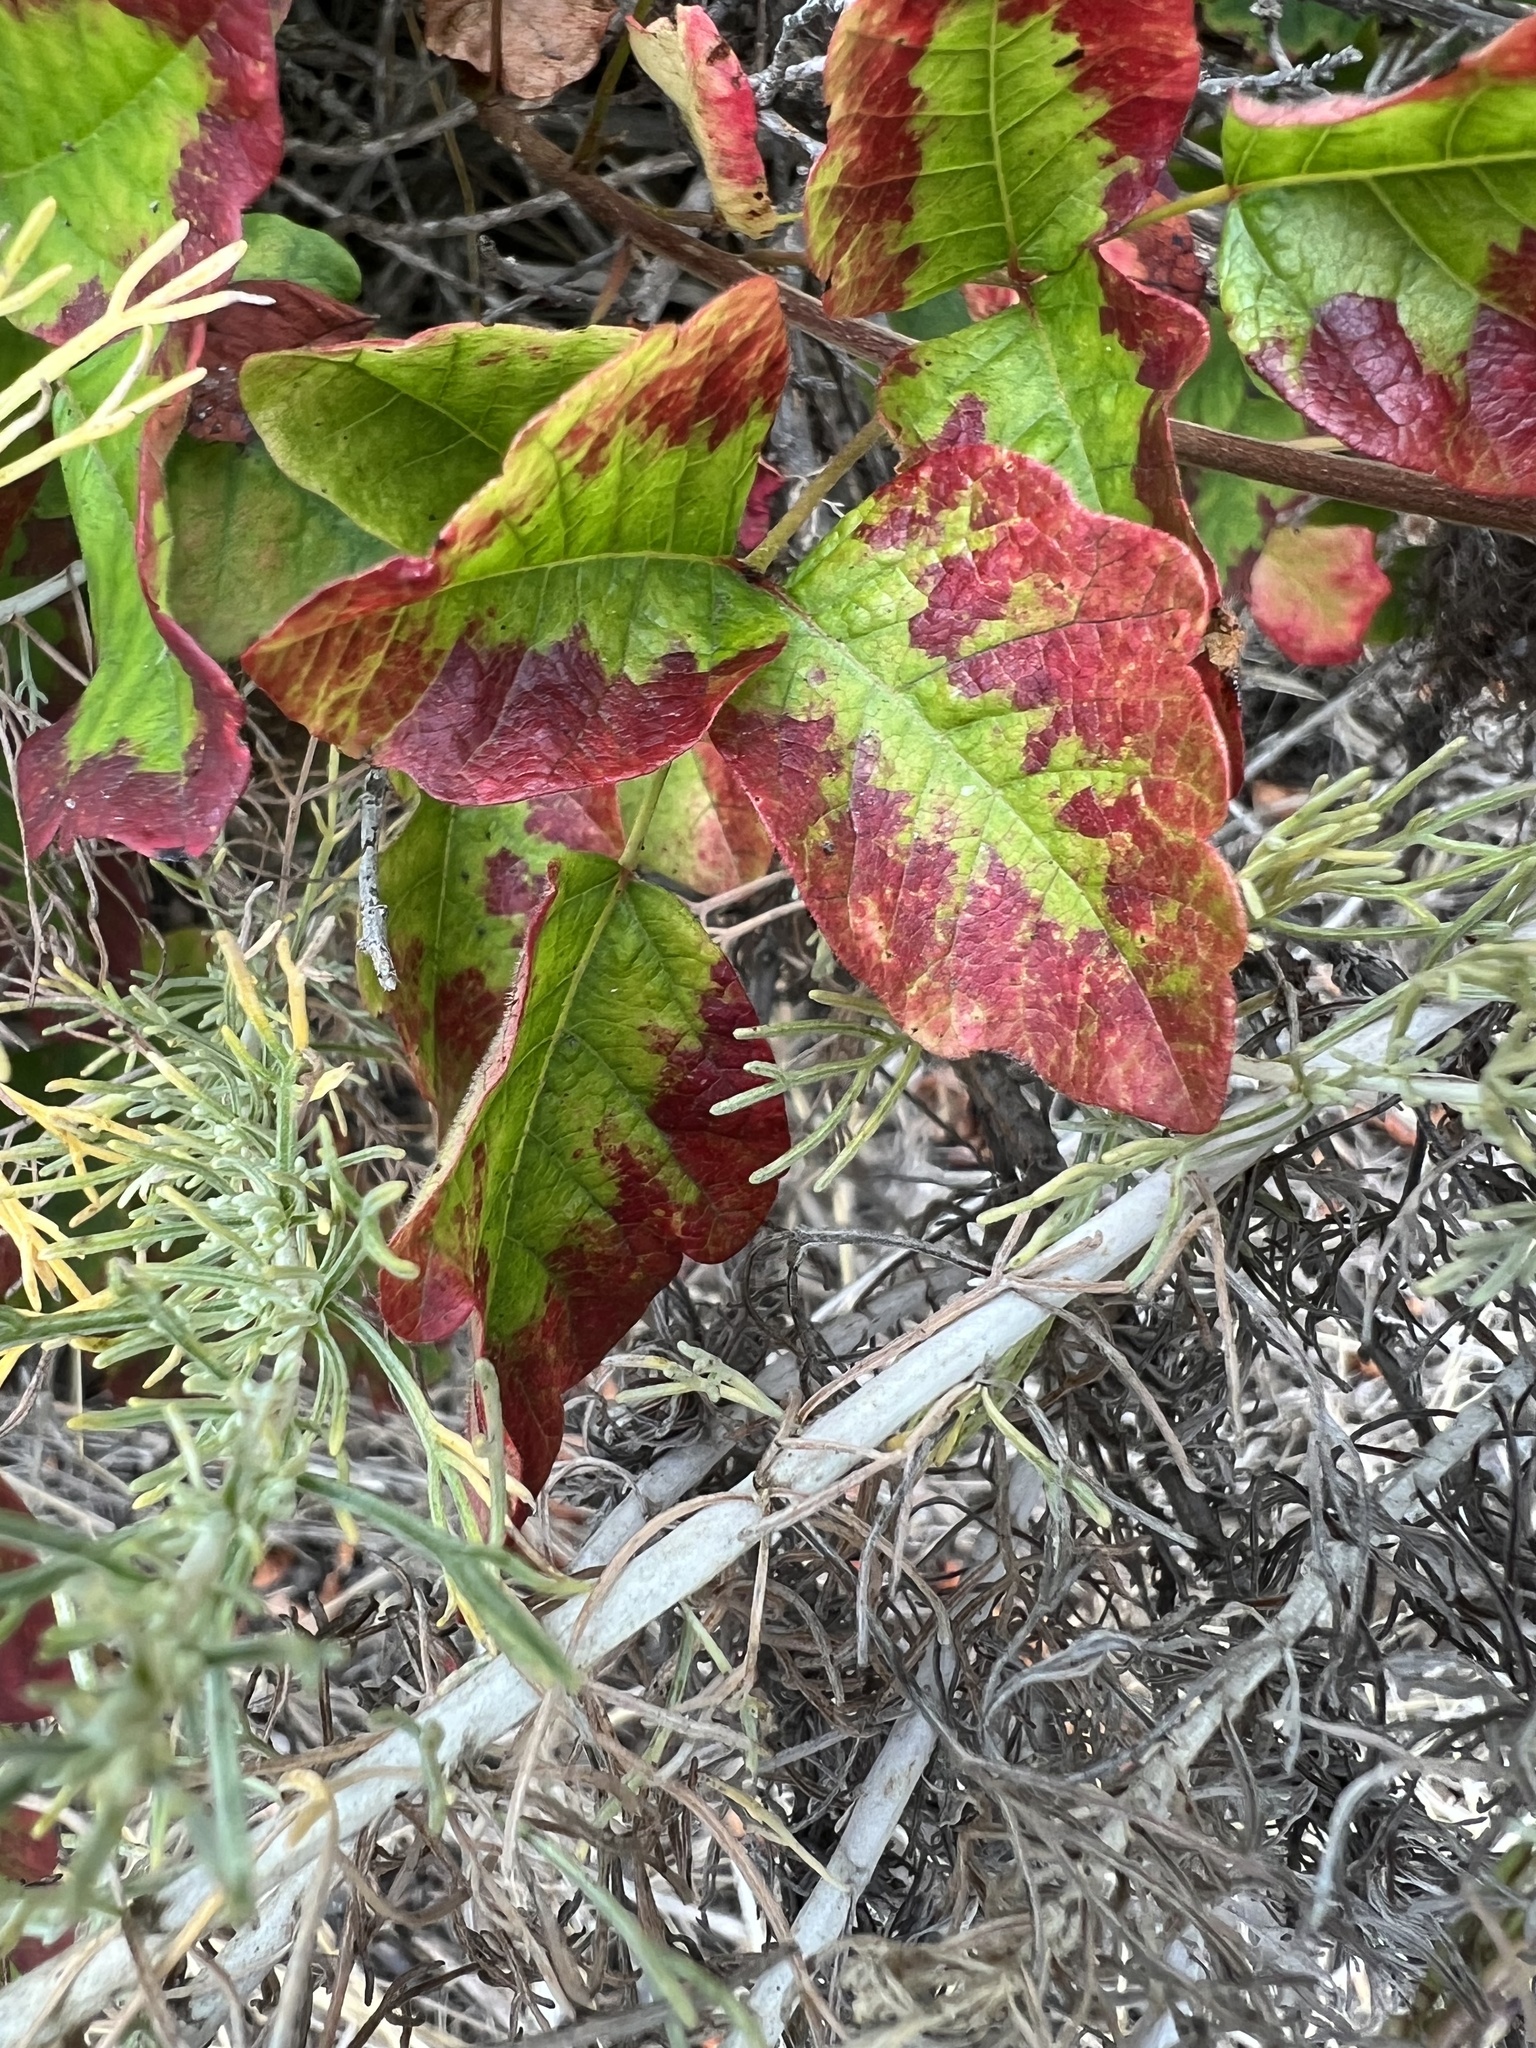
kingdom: Plantae
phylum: Tracheophyta
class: Magnoliopsida
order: Sapindales
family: Anacardiaceae
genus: Toxicodendron
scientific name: Toxicodendron diversilobum
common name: Pacific poison-oak
